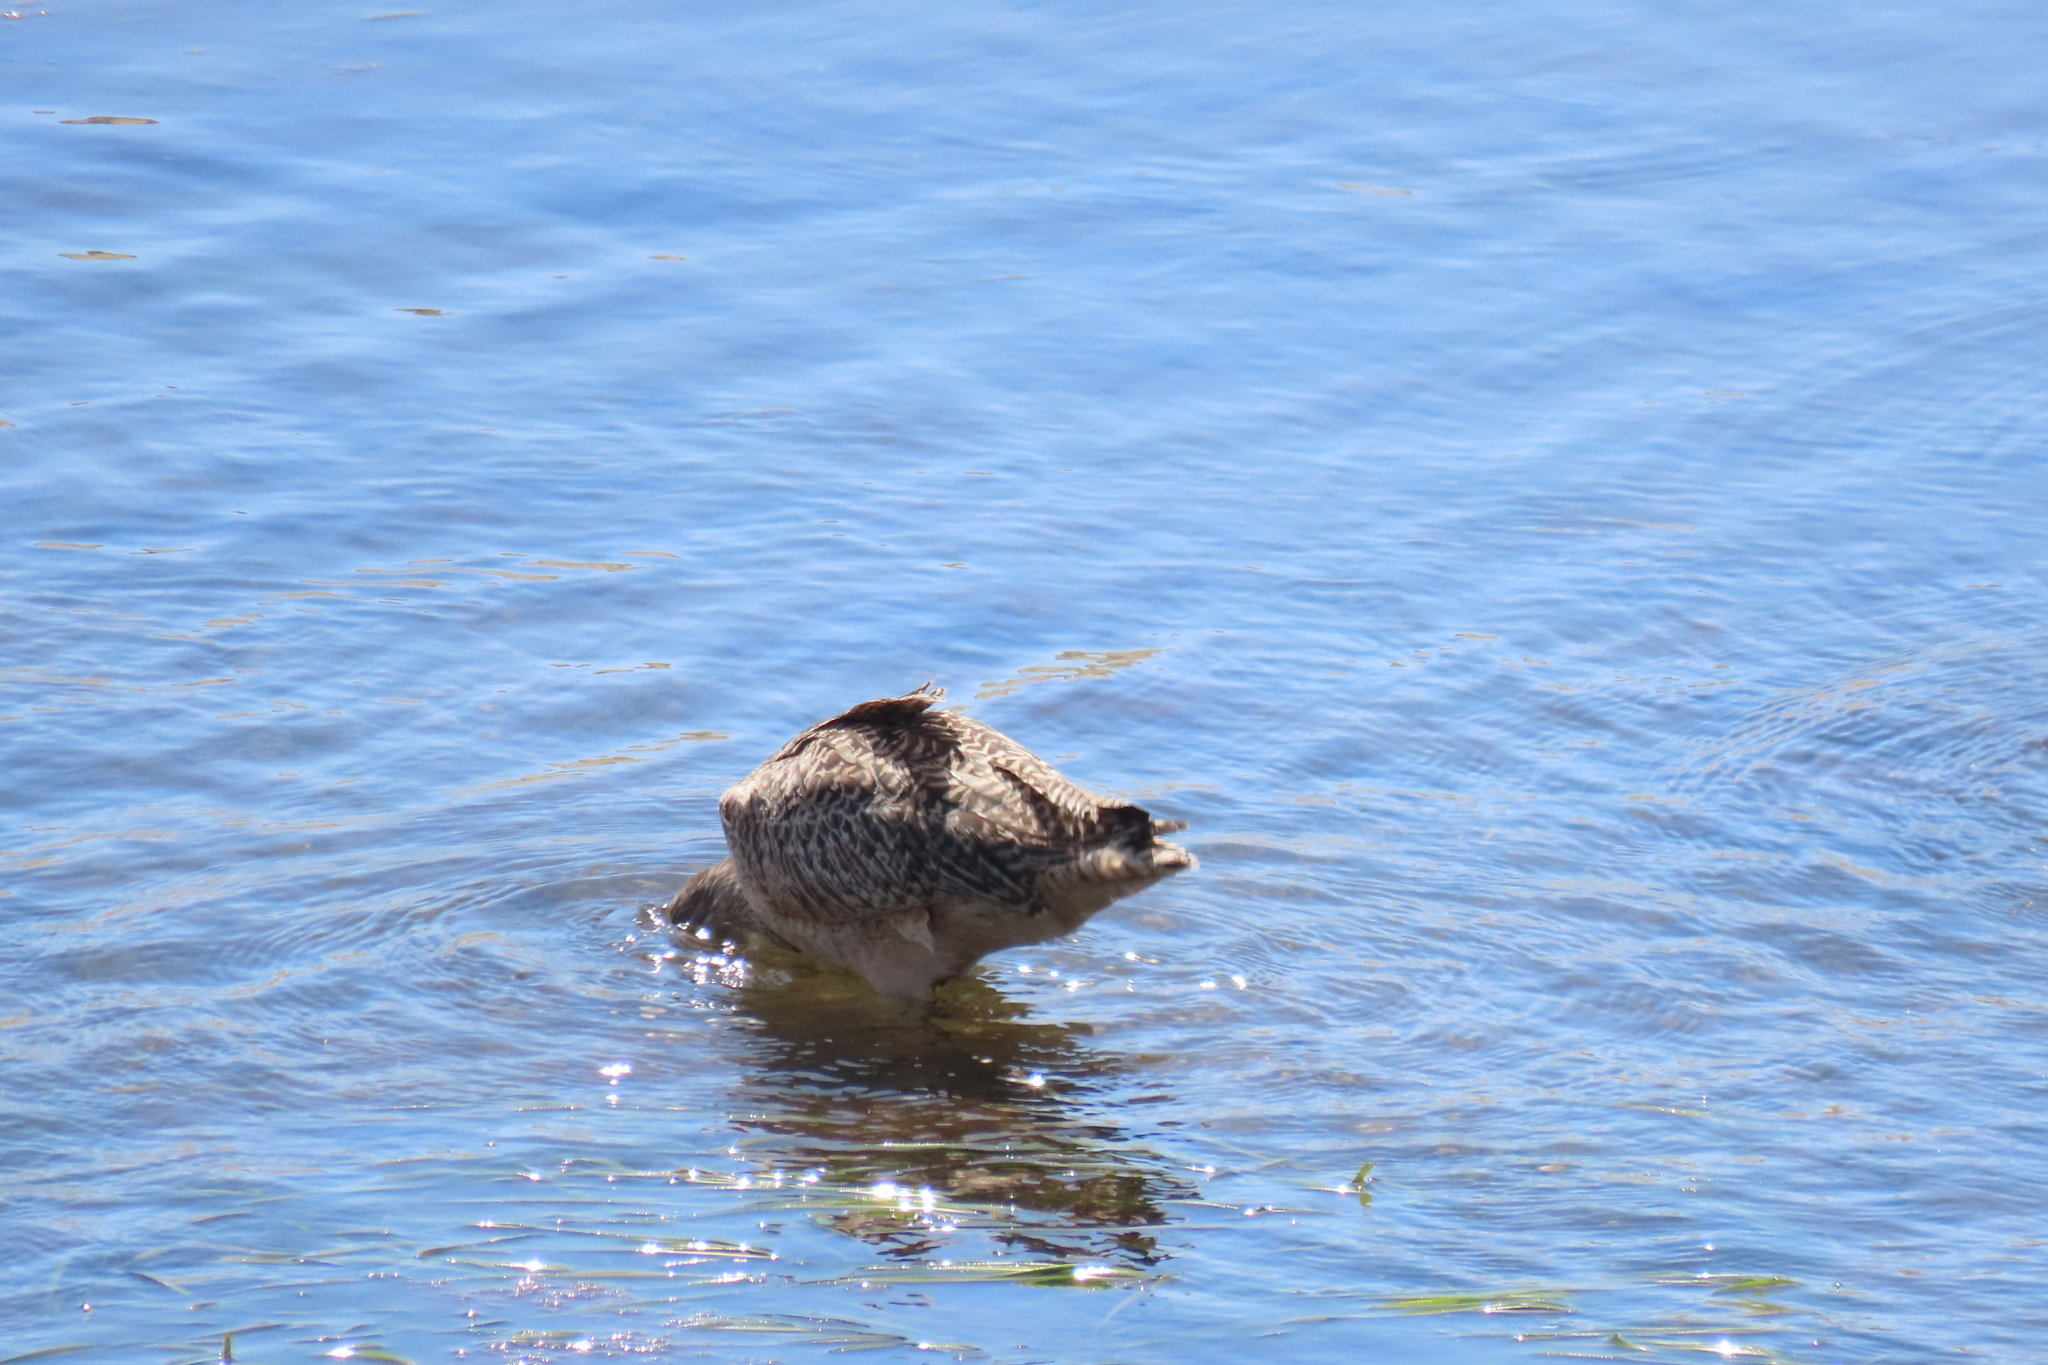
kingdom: Animalia
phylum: Chordata
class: Aves
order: Charadriiformes
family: Scolopacidae
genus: Limosa
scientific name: Limosa fedoa
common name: Marbled godwit
